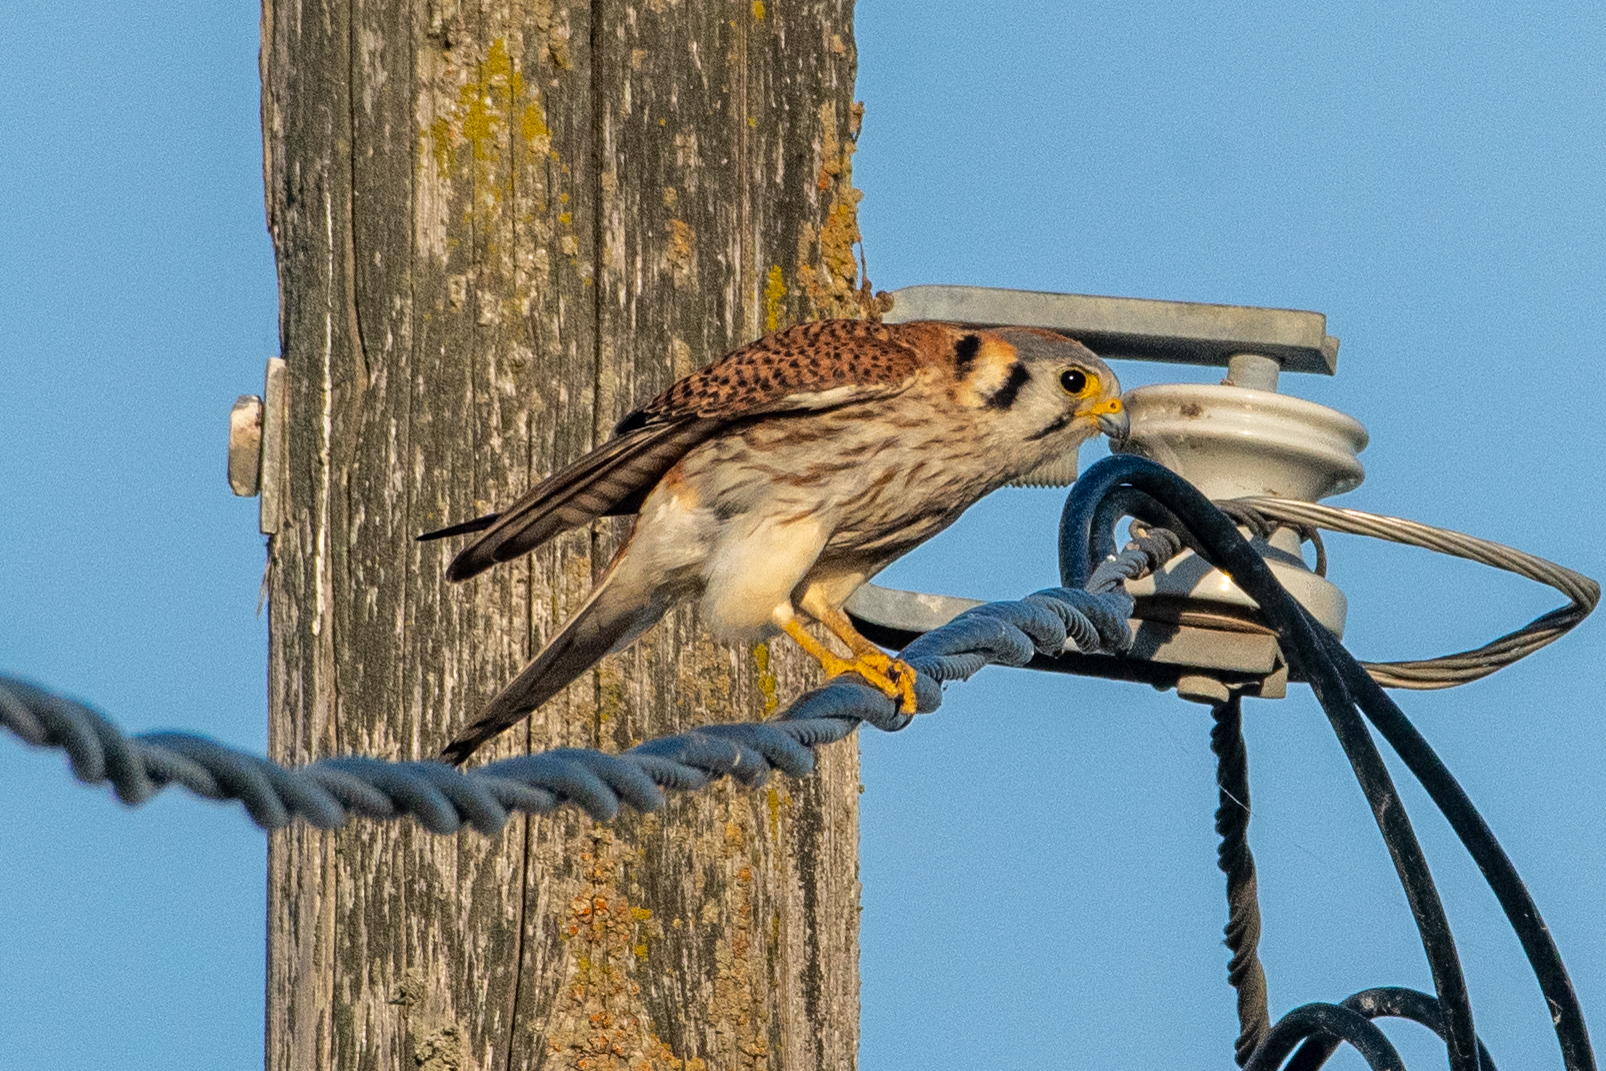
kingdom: Animalia
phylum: Chordata
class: Aves
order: Falconiformes
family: Falconidae
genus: Falco
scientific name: Falco sparverius
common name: American kestrel
